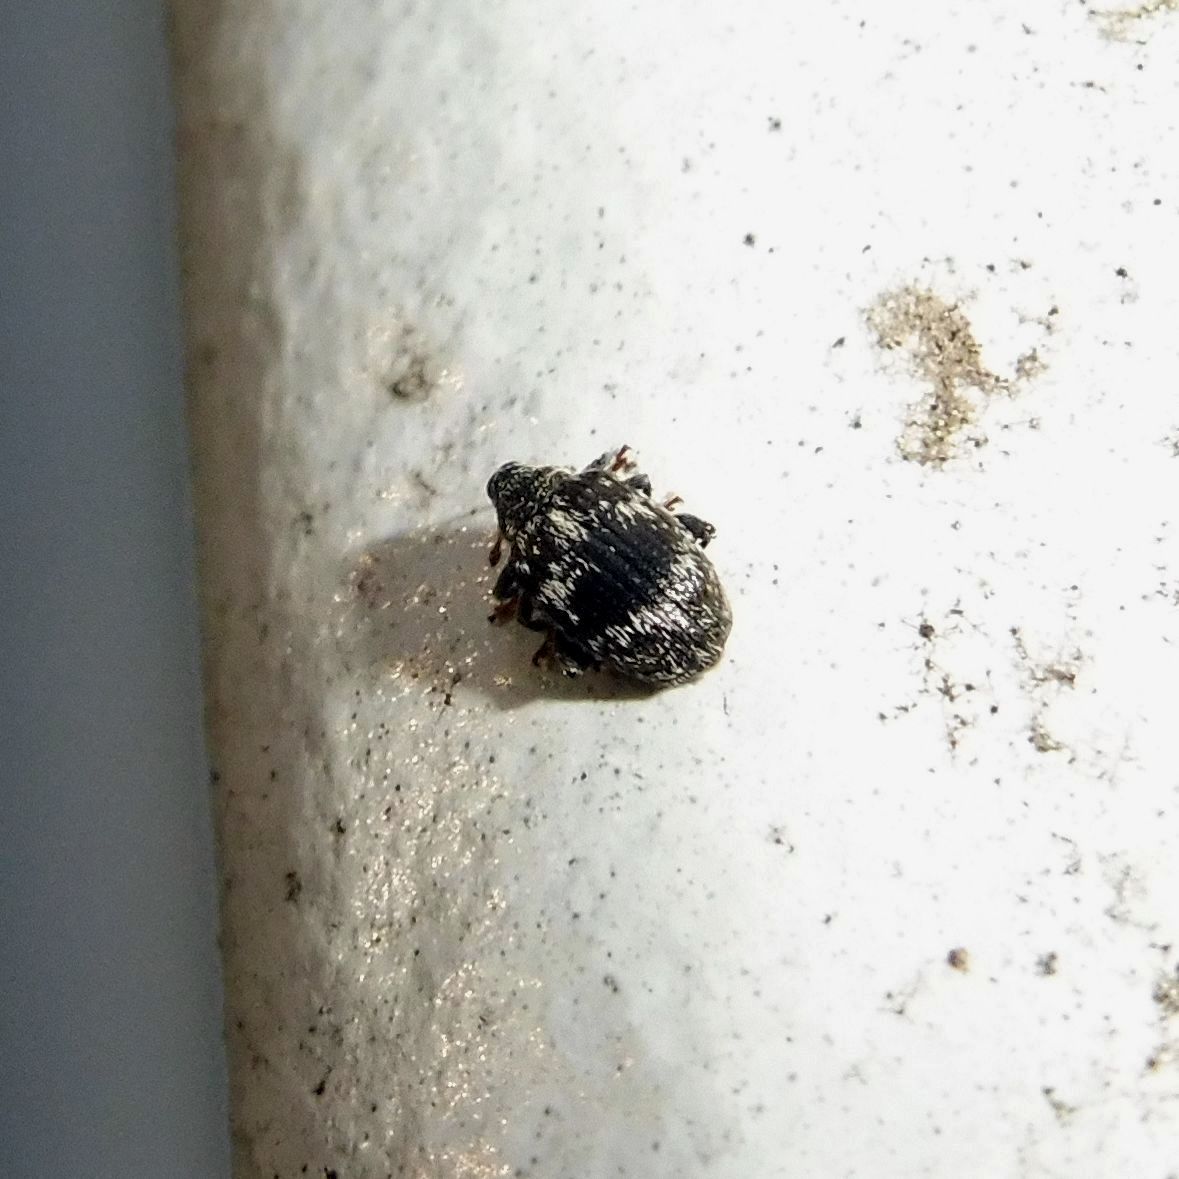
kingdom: Animalia
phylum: Arthropoda
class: Insecta
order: Coleoptera
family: Curculionidae
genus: Orchestes
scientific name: Orchestes rusci
